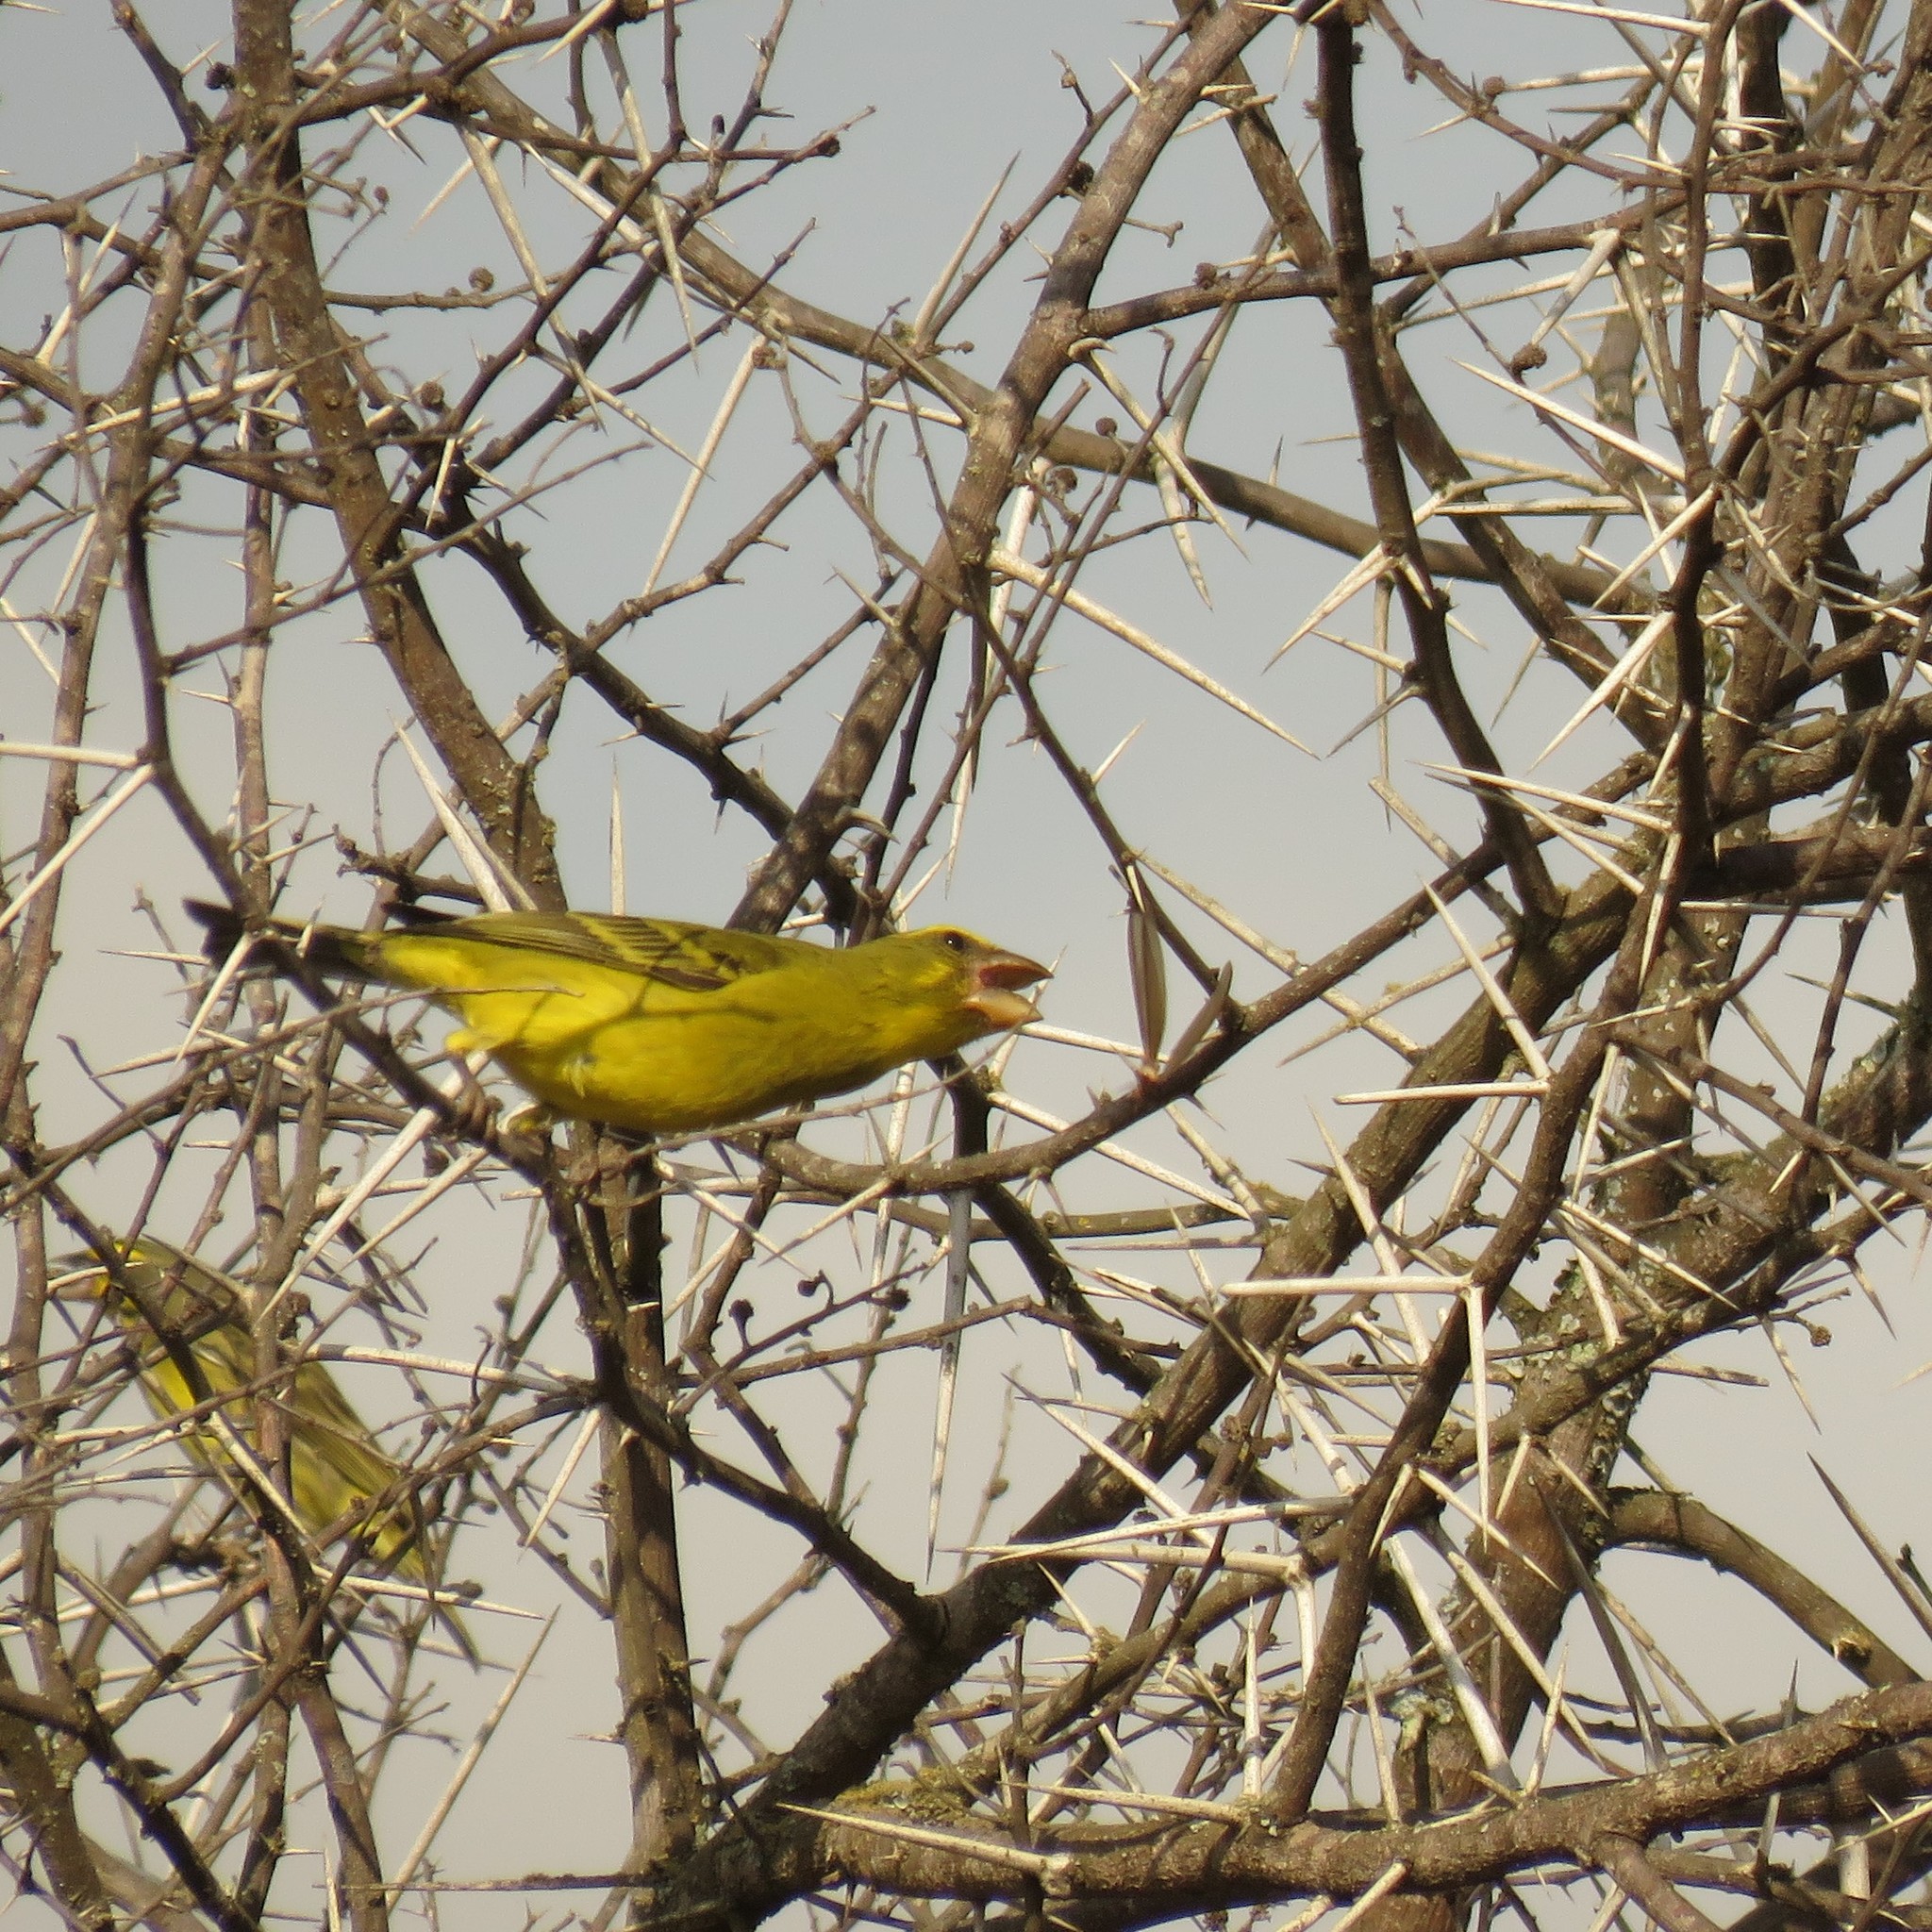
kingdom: Animalia
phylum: Chordata
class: Aves
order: Passeriformes
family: Fringillidae
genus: Crithagra
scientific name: Crithagra sulphurata
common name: Brimstone canary
